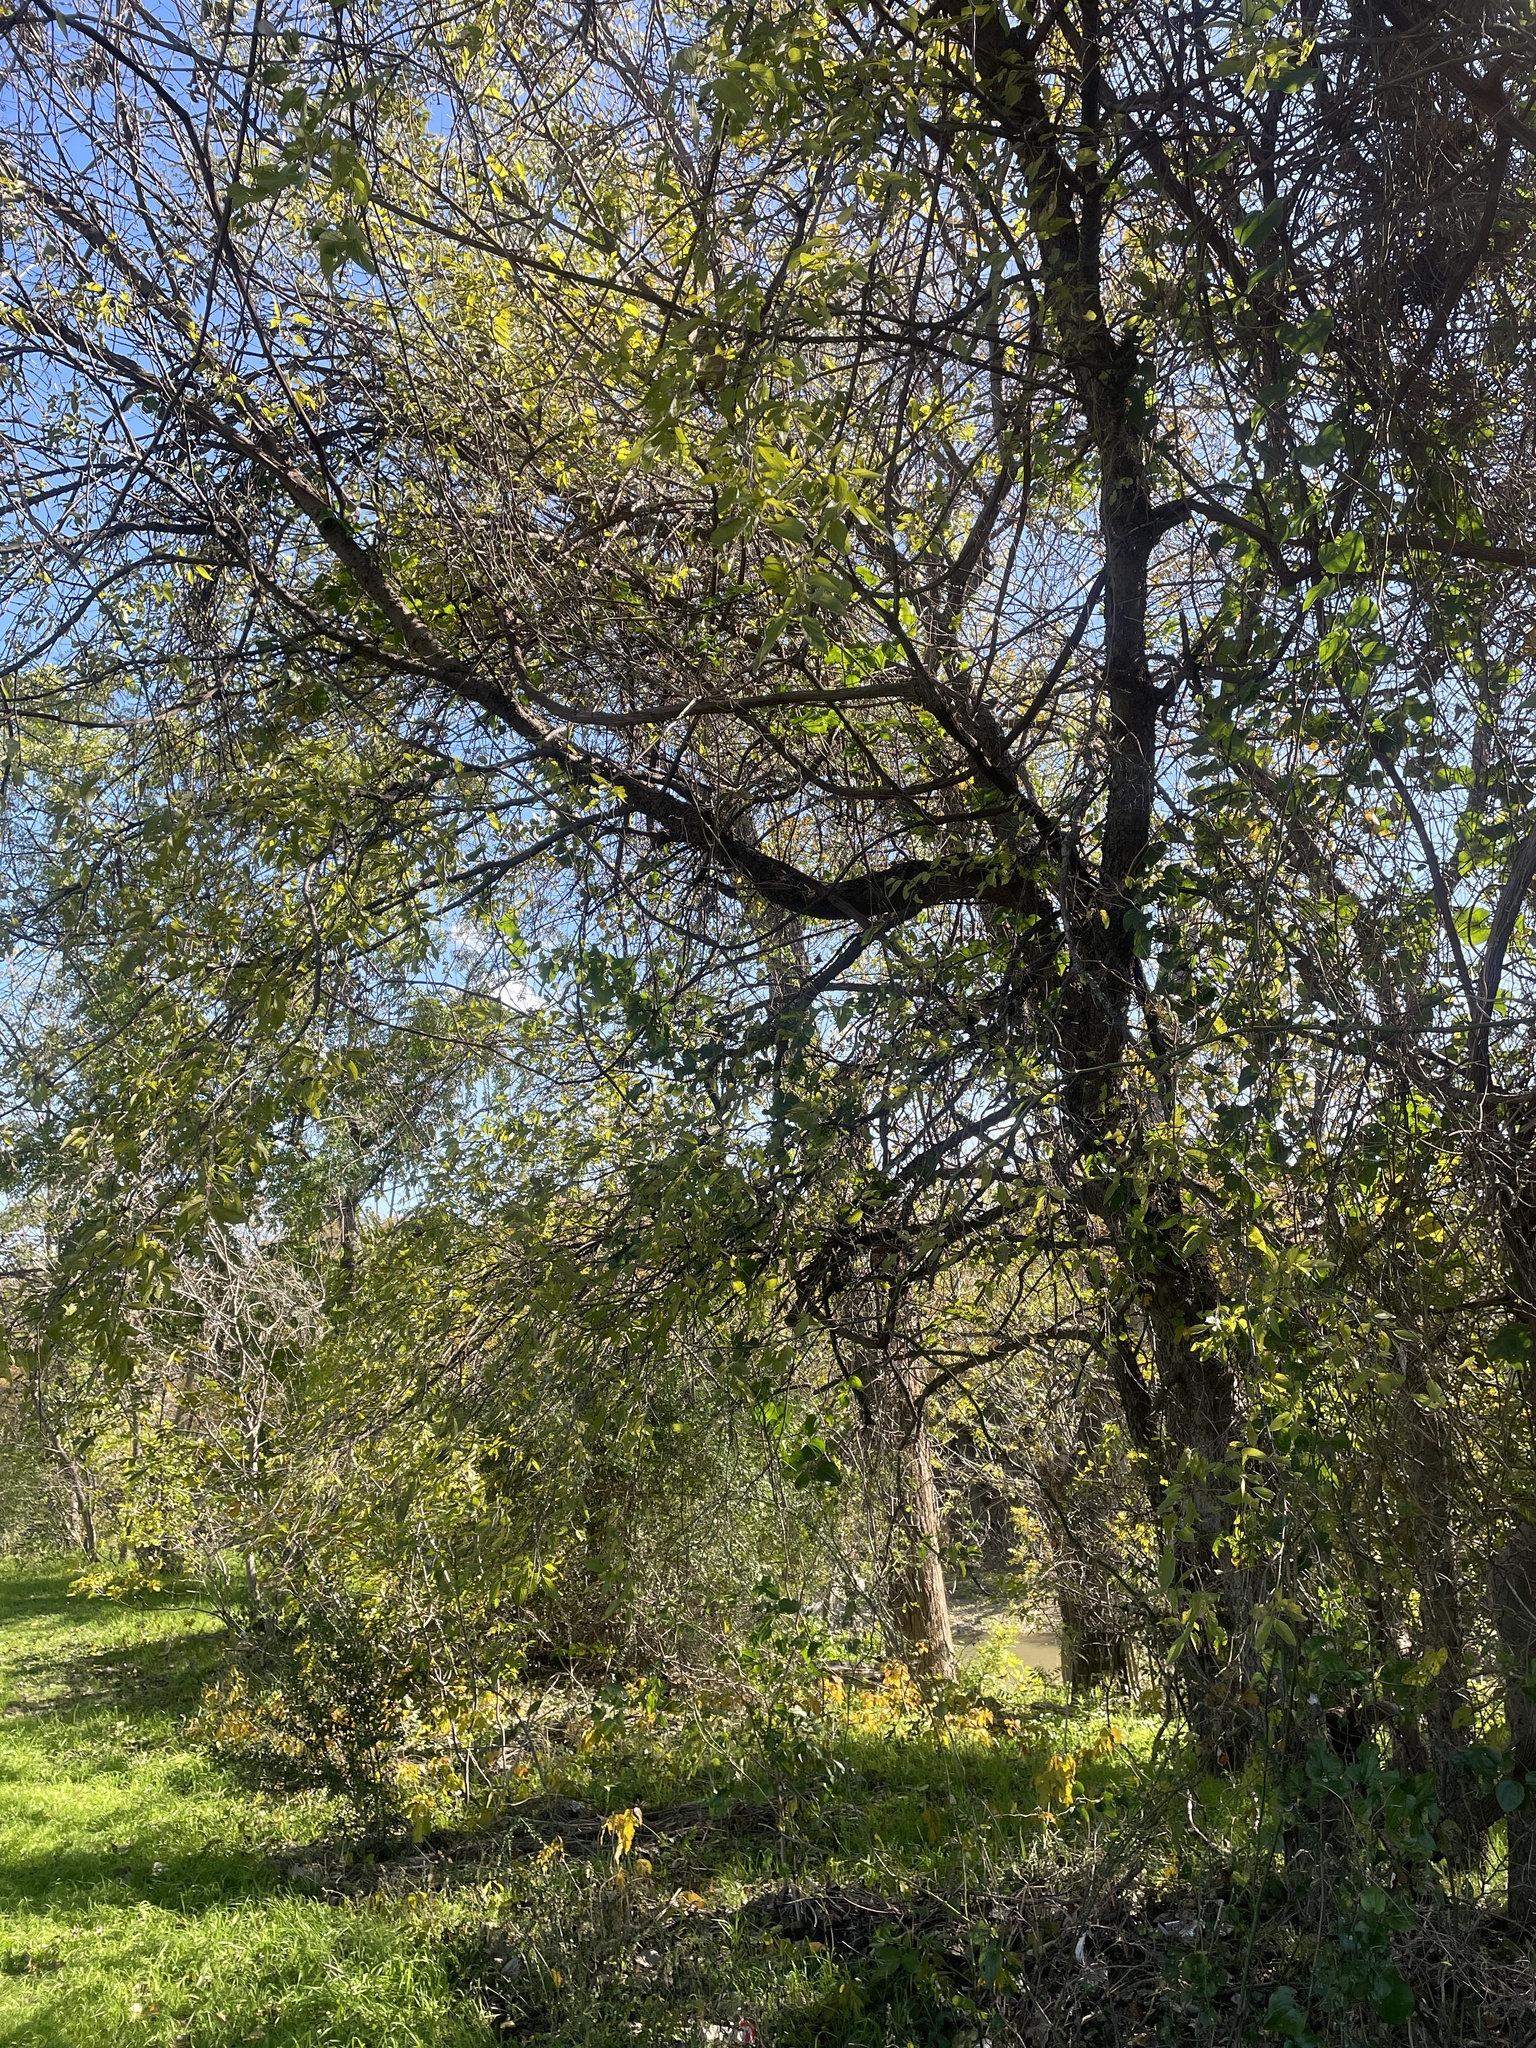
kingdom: Plantae
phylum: Tracheophyta
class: Magnoliopsida
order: Rosales
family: Cannabaceae
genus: Celtis
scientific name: Celtis laevigata
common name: Sugarberry
